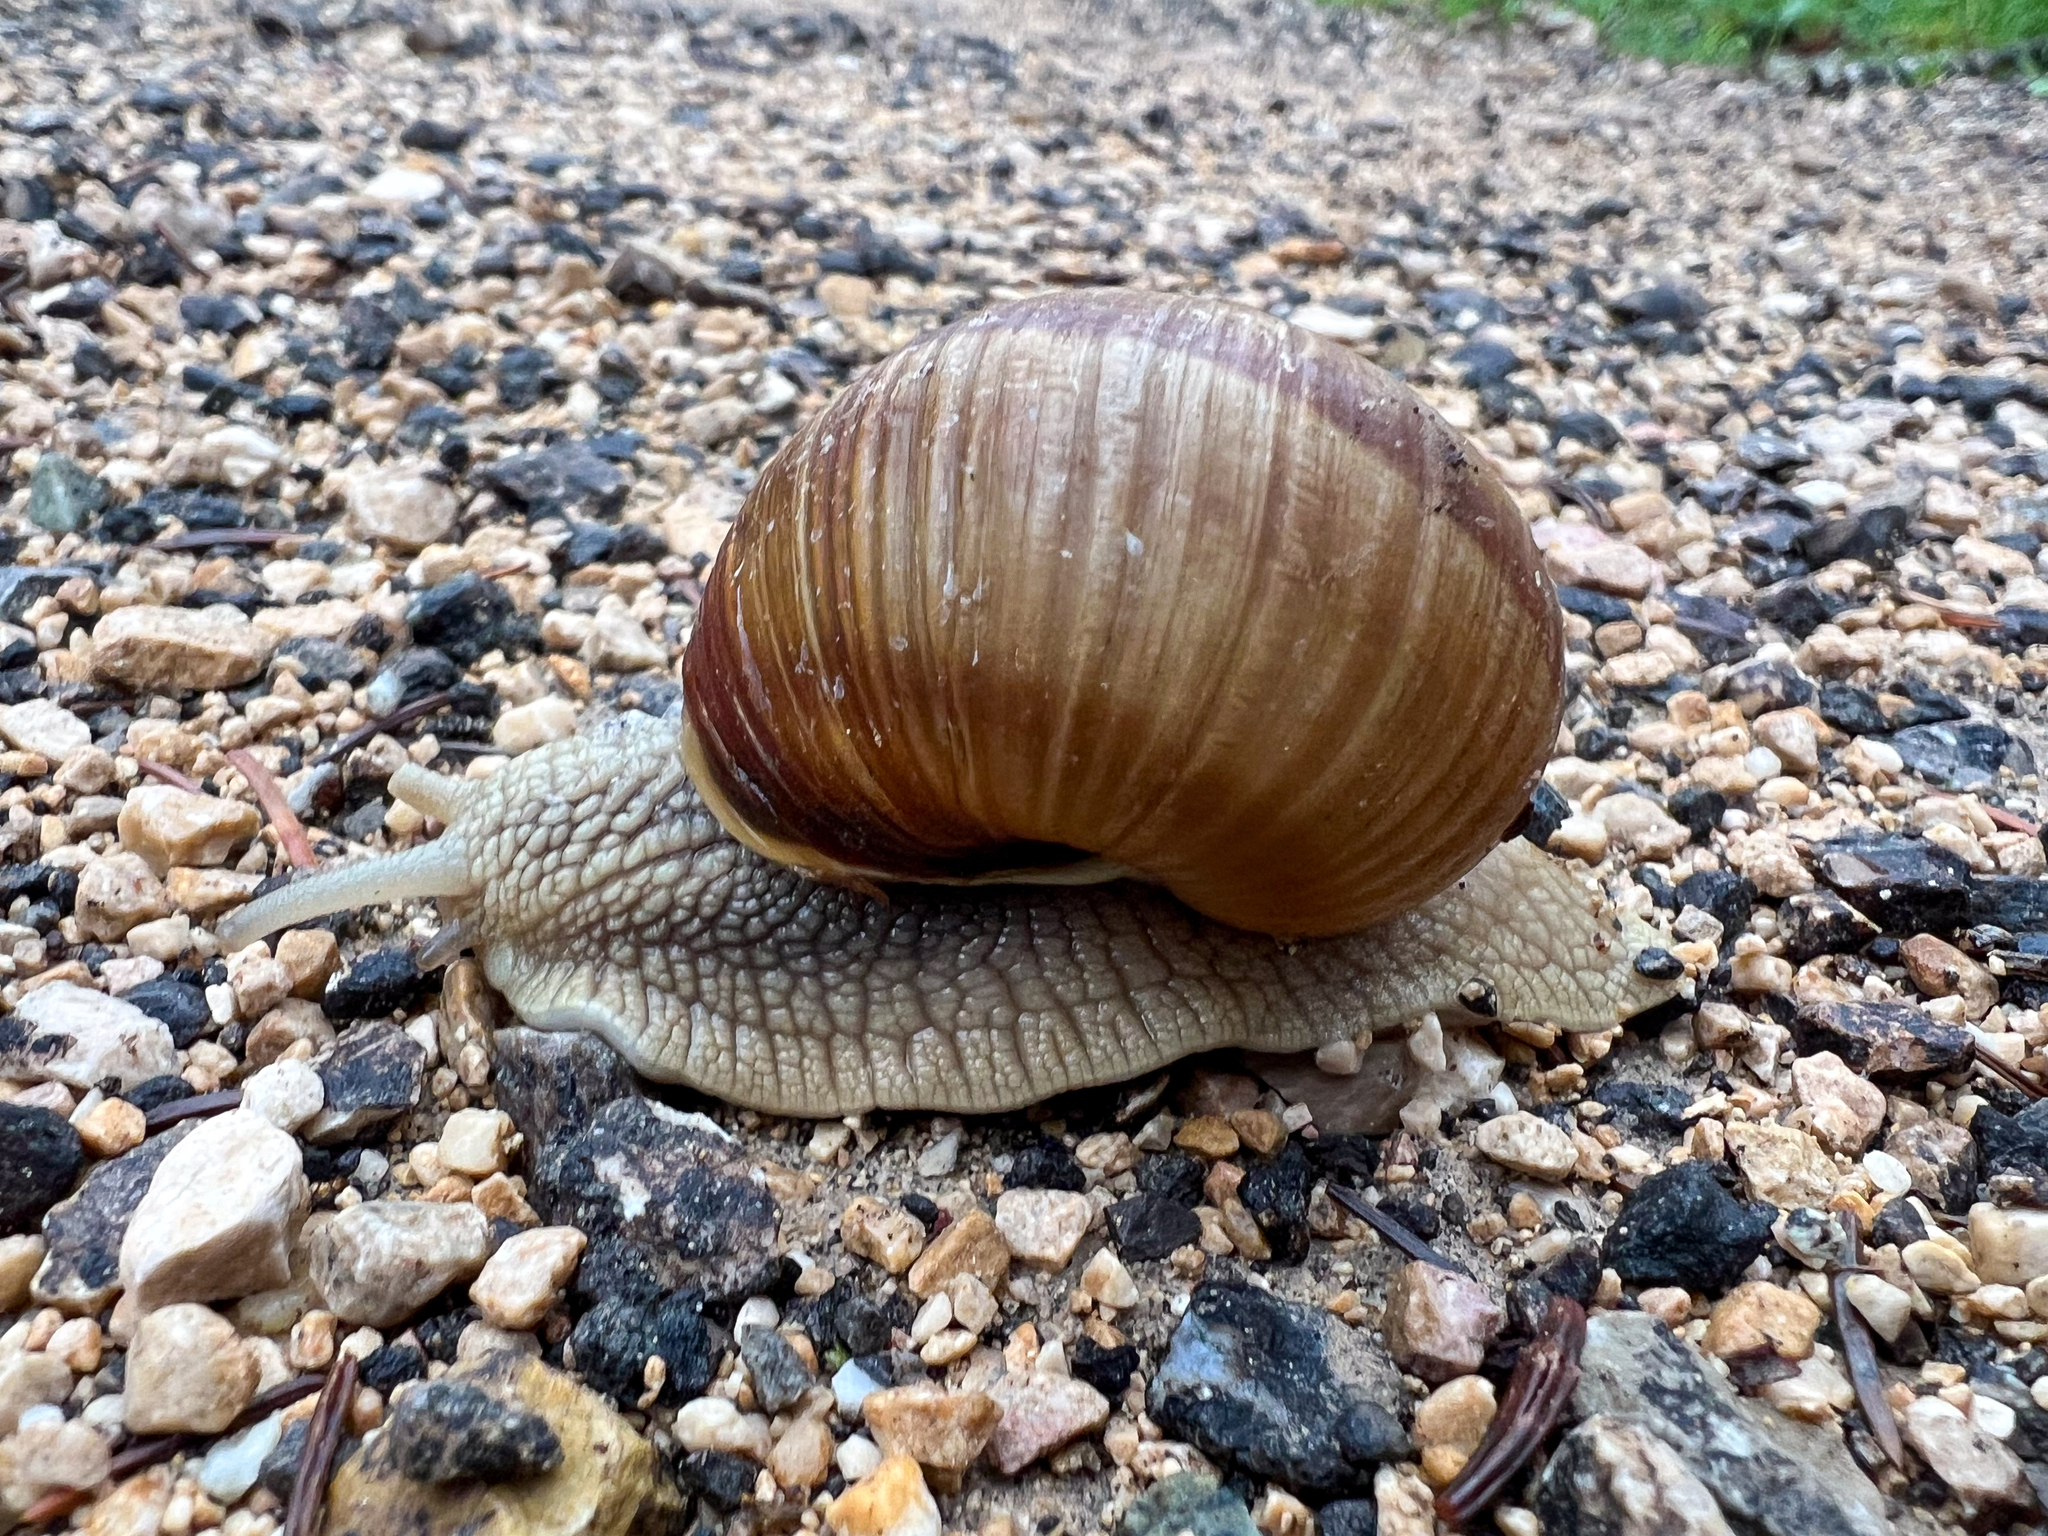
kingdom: Animalia
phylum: Mollusca
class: Gastropoda
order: Stylommatophora
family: Helicidae
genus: Helix
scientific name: Helix pomatia
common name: Roman snail
